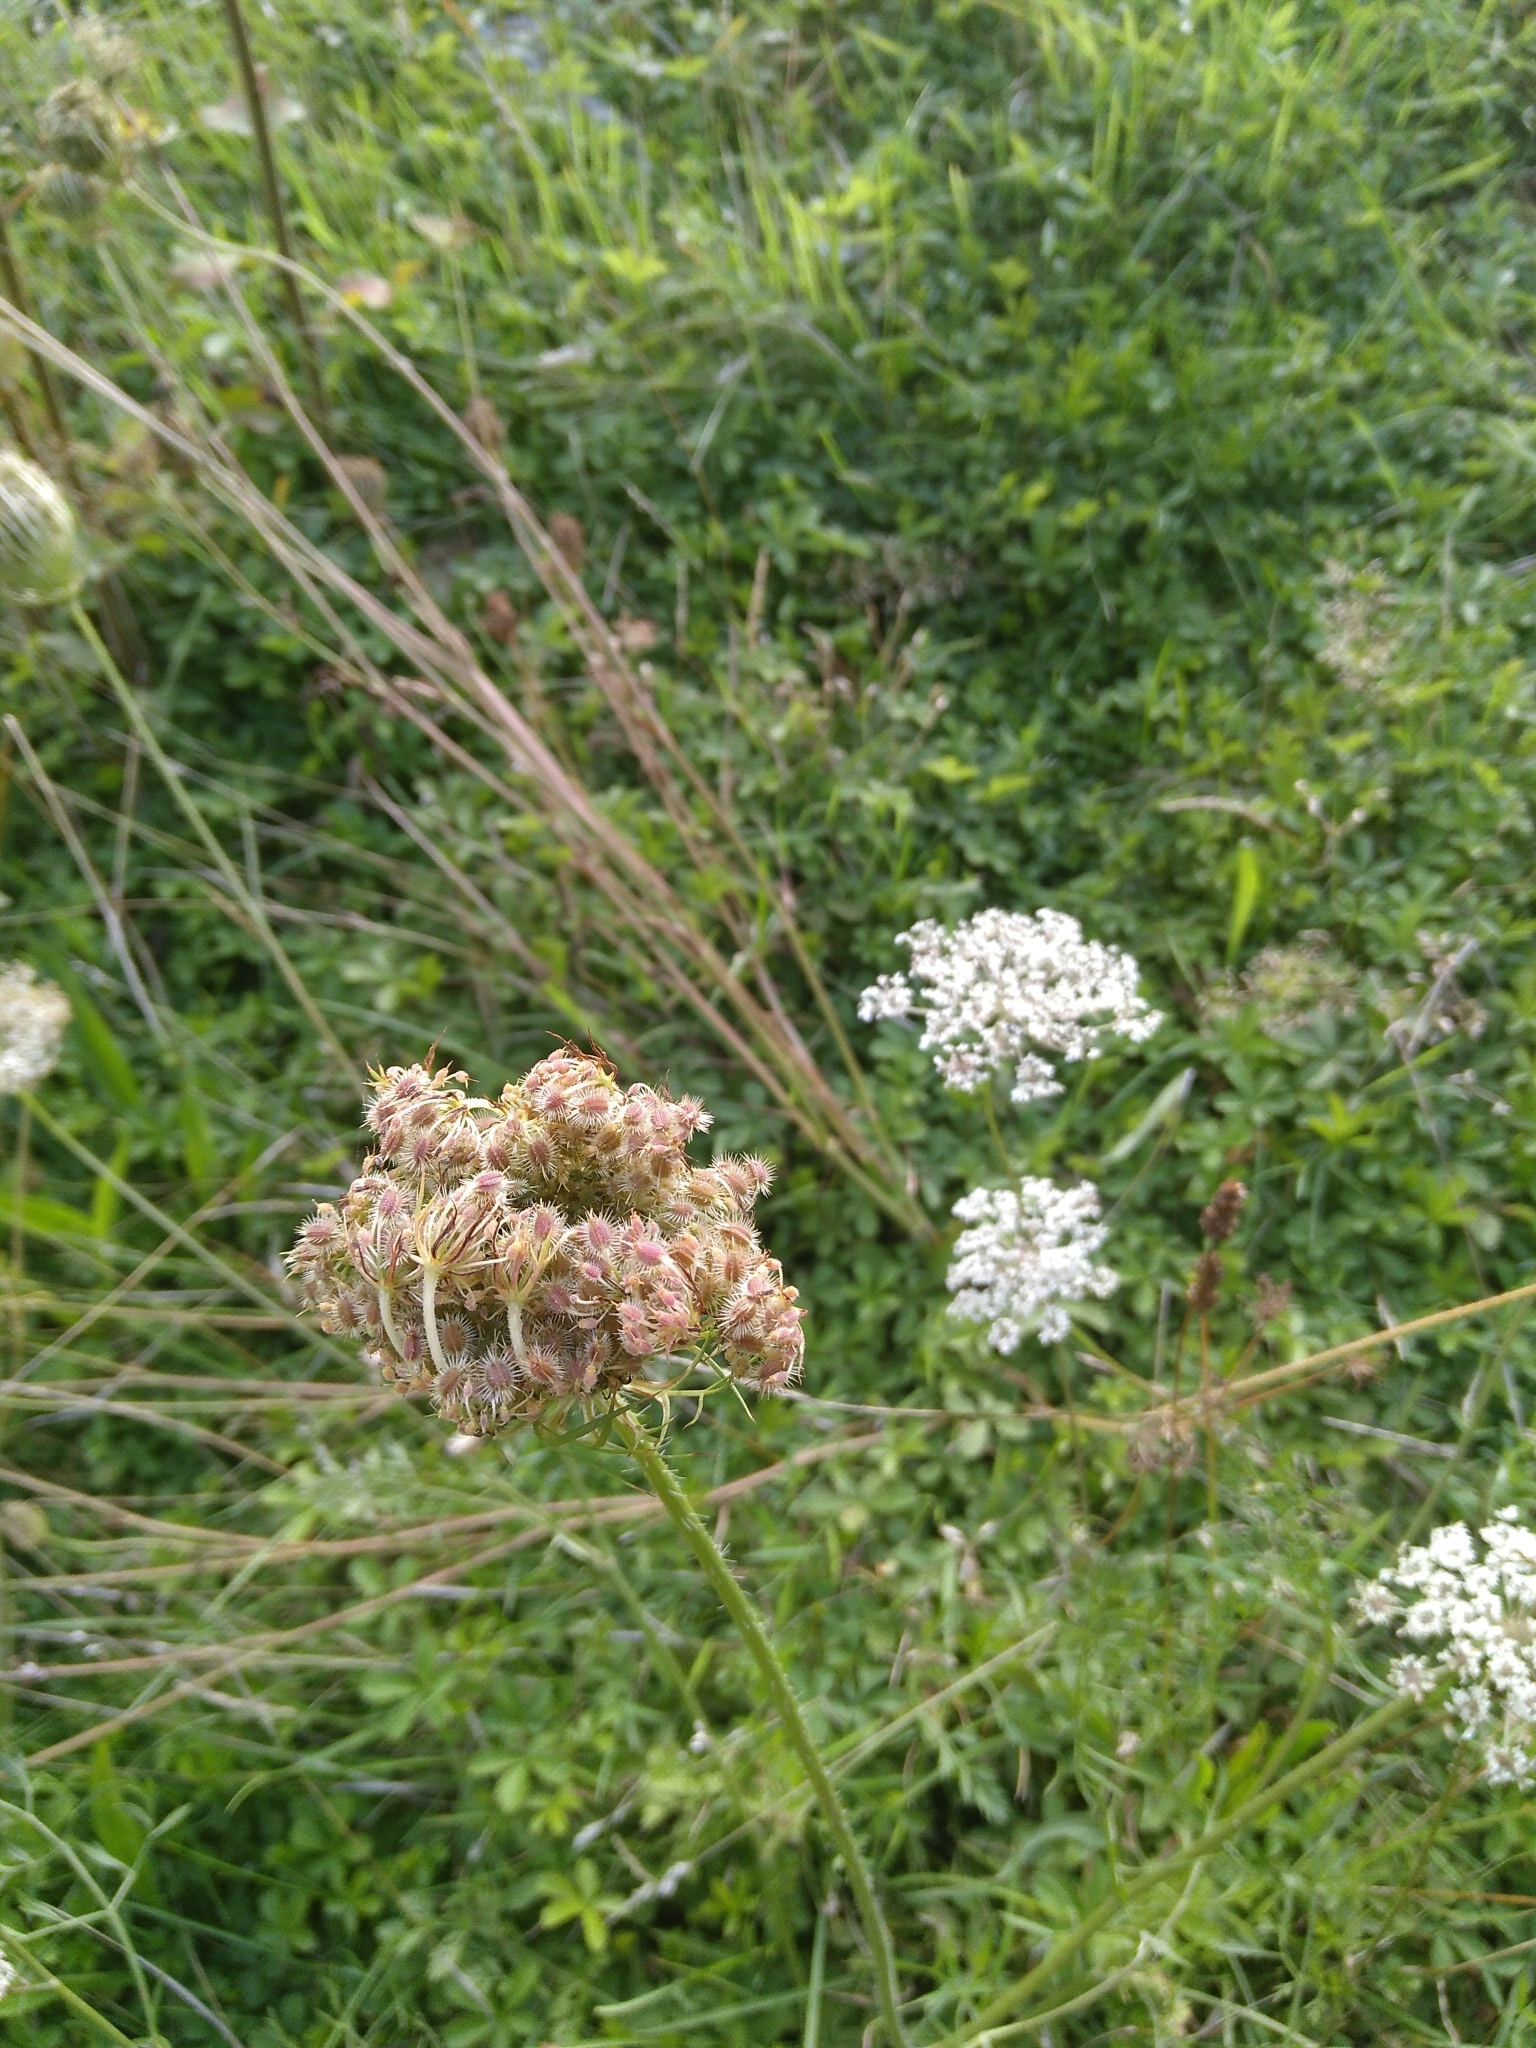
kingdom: Plantae
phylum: Tracheophyta
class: Magnoliopsida
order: Apiales
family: Apiaceae
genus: Daucus
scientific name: Daucus carota
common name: Wild carrot
